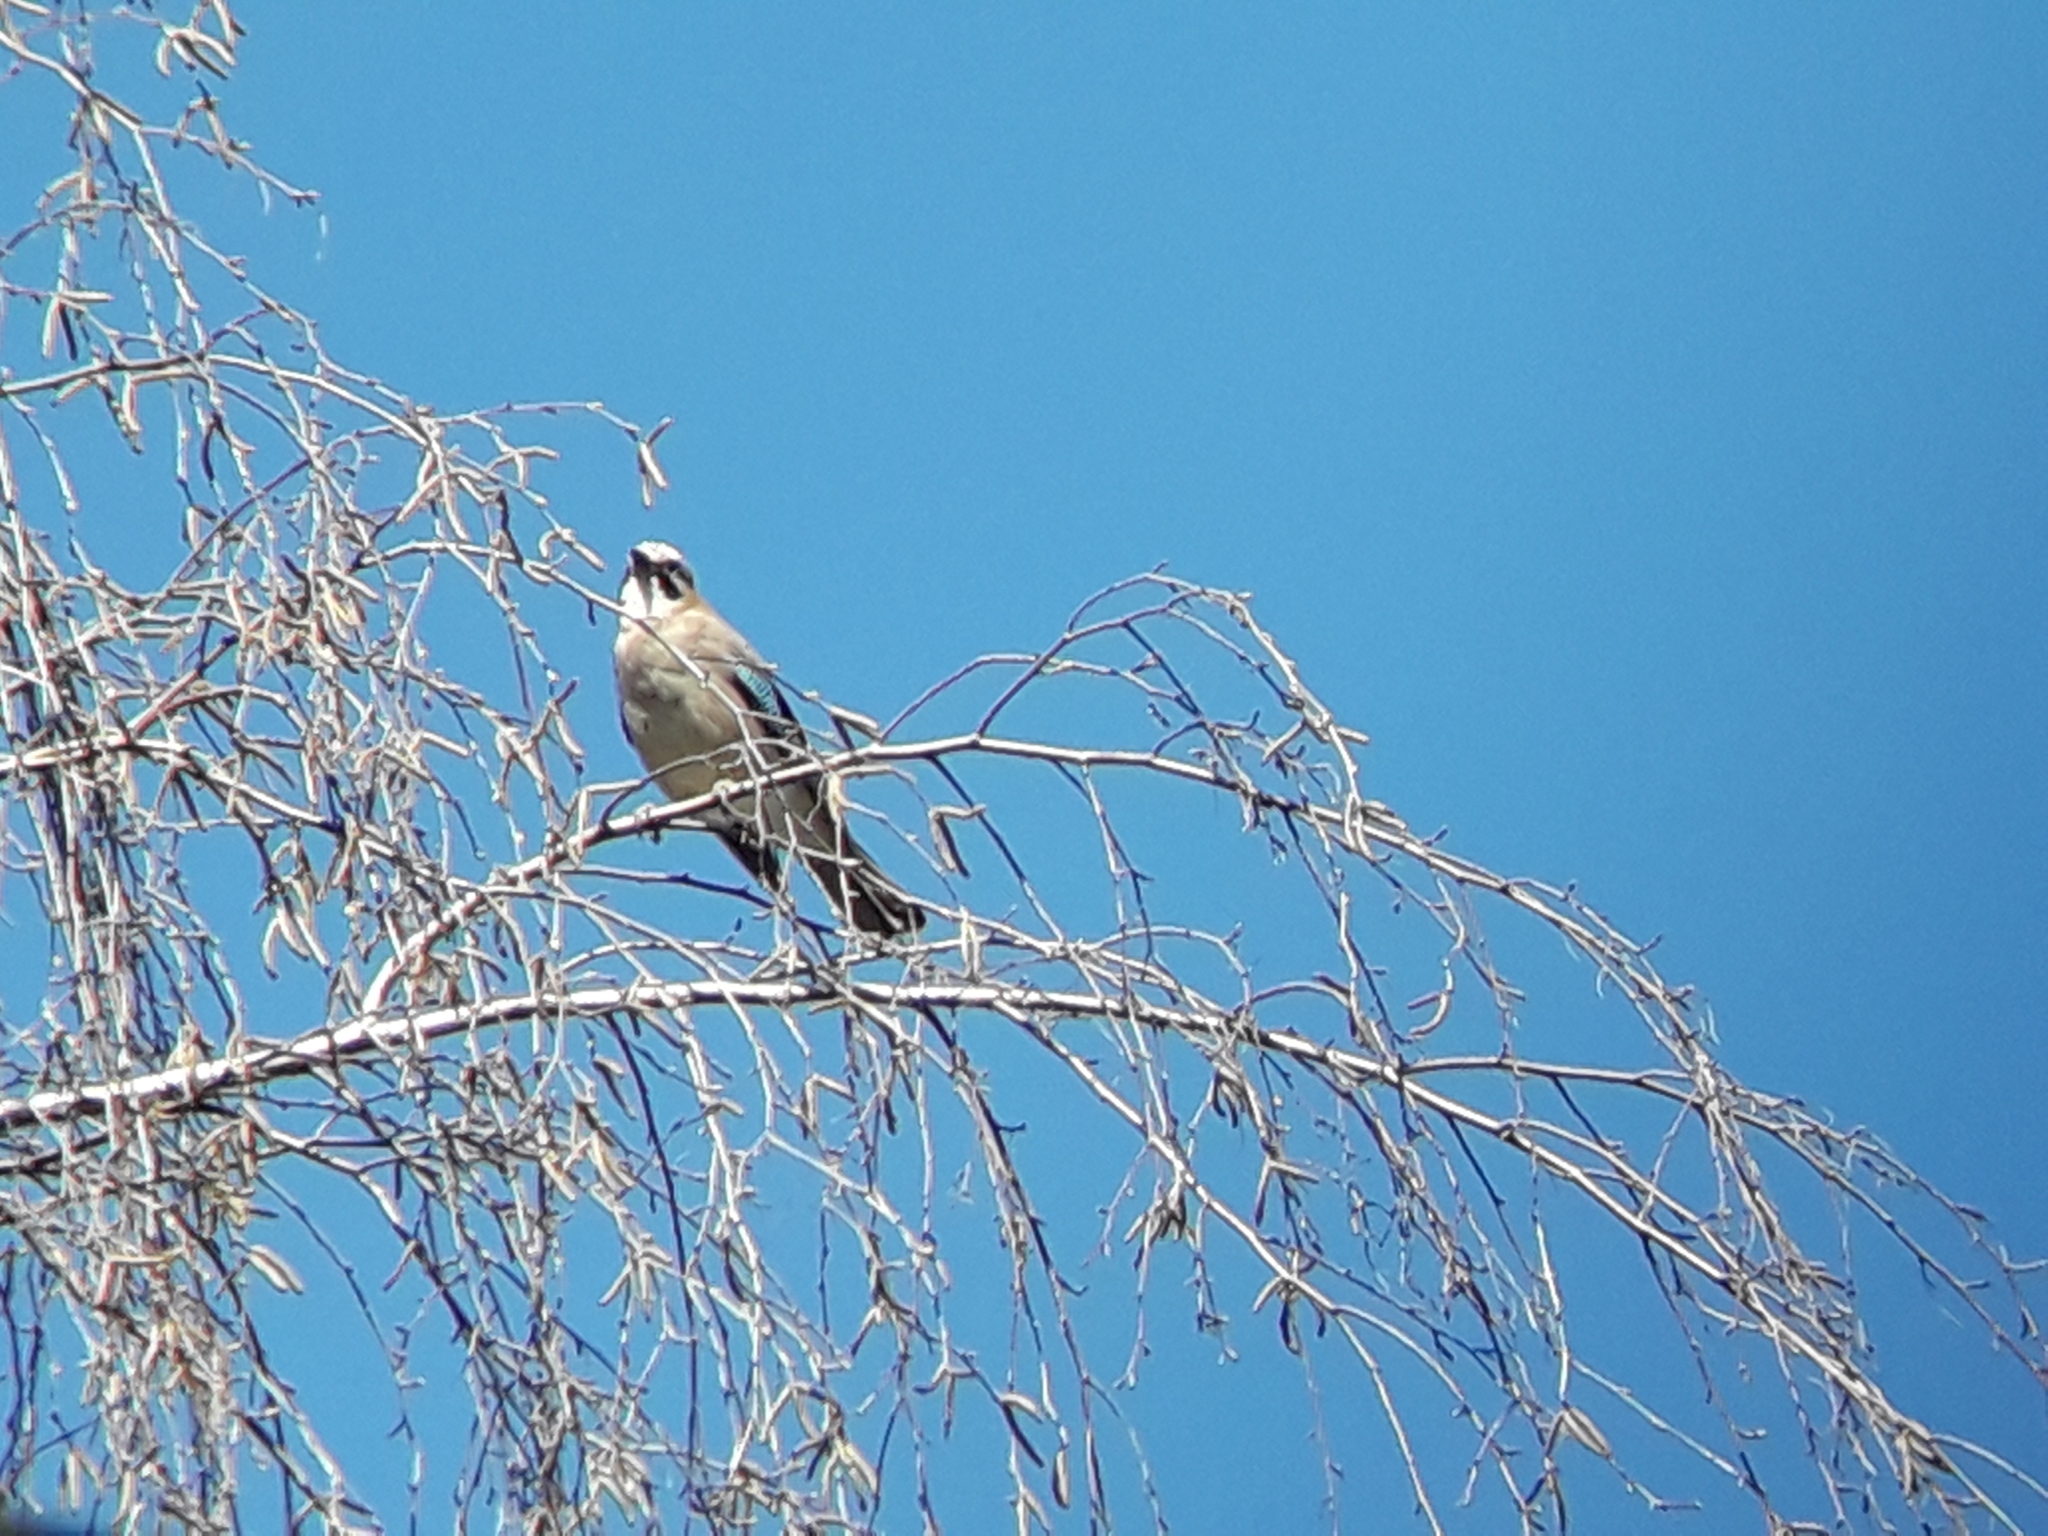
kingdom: Animalia
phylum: Chordata
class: Aves
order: Passeriformes
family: Corvidae
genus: Garrulus
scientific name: Garrulus glandarius
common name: Eurasian jay
